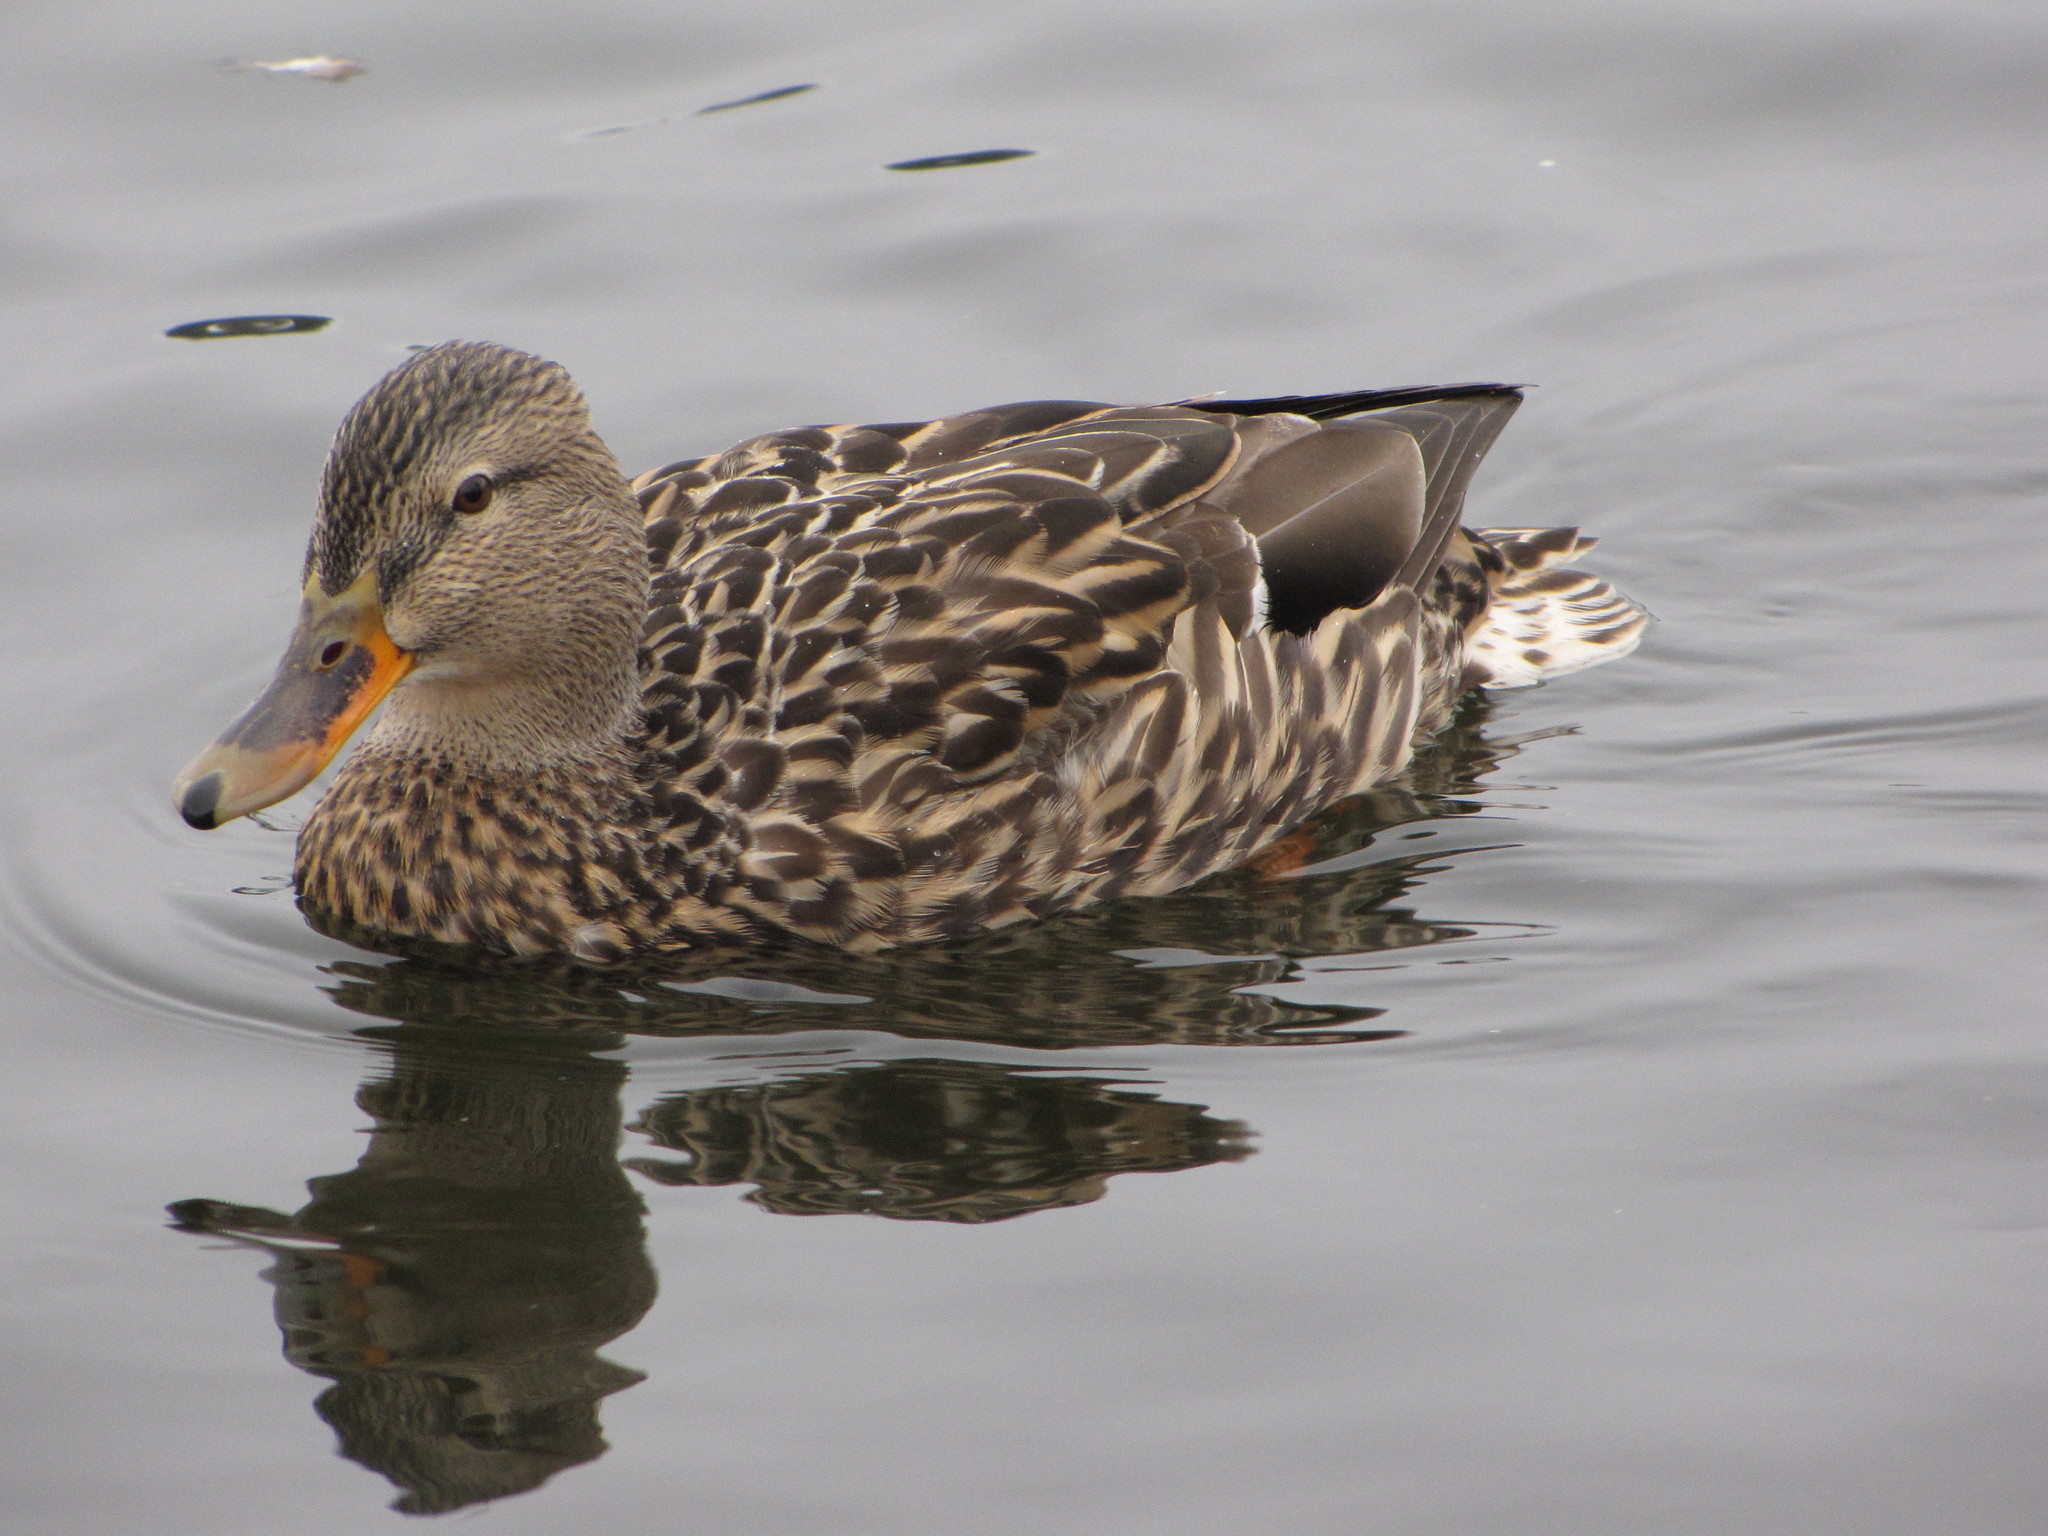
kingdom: Animalia
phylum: Chordata
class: Aves
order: Anseriformes
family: Anatidae
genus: Anas
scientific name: Anas platyrhynchos
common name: Mallard
